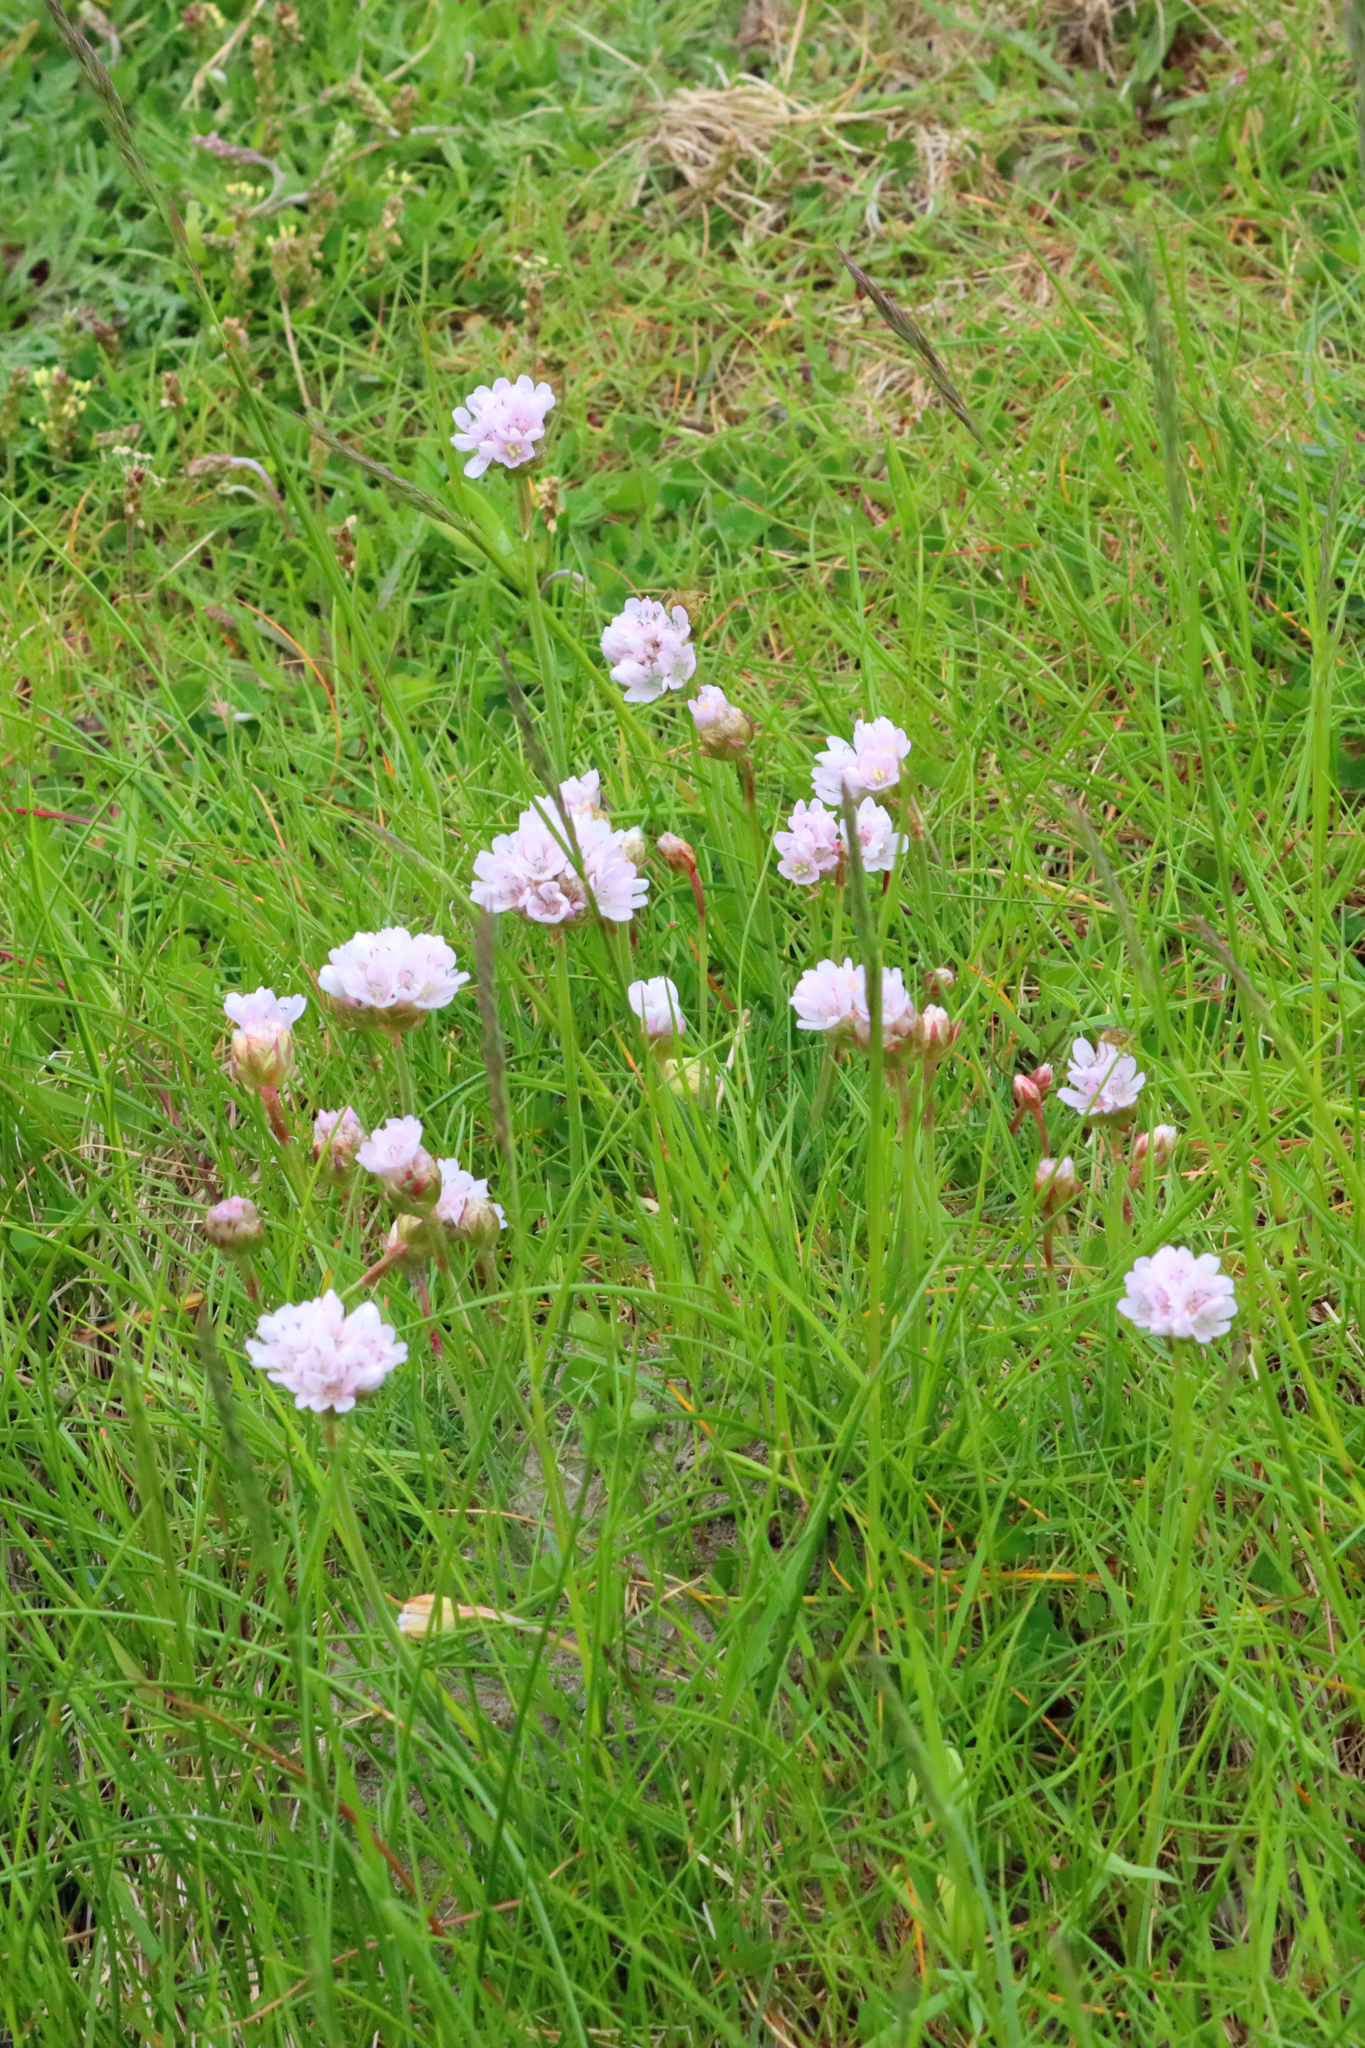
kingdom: Plantae
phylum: Tracheophyta
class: Magnoliopsida
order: Caryophyllales
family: Plumbaginaceae
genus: Armeria
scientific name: Armeria maritima
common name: Thrift
